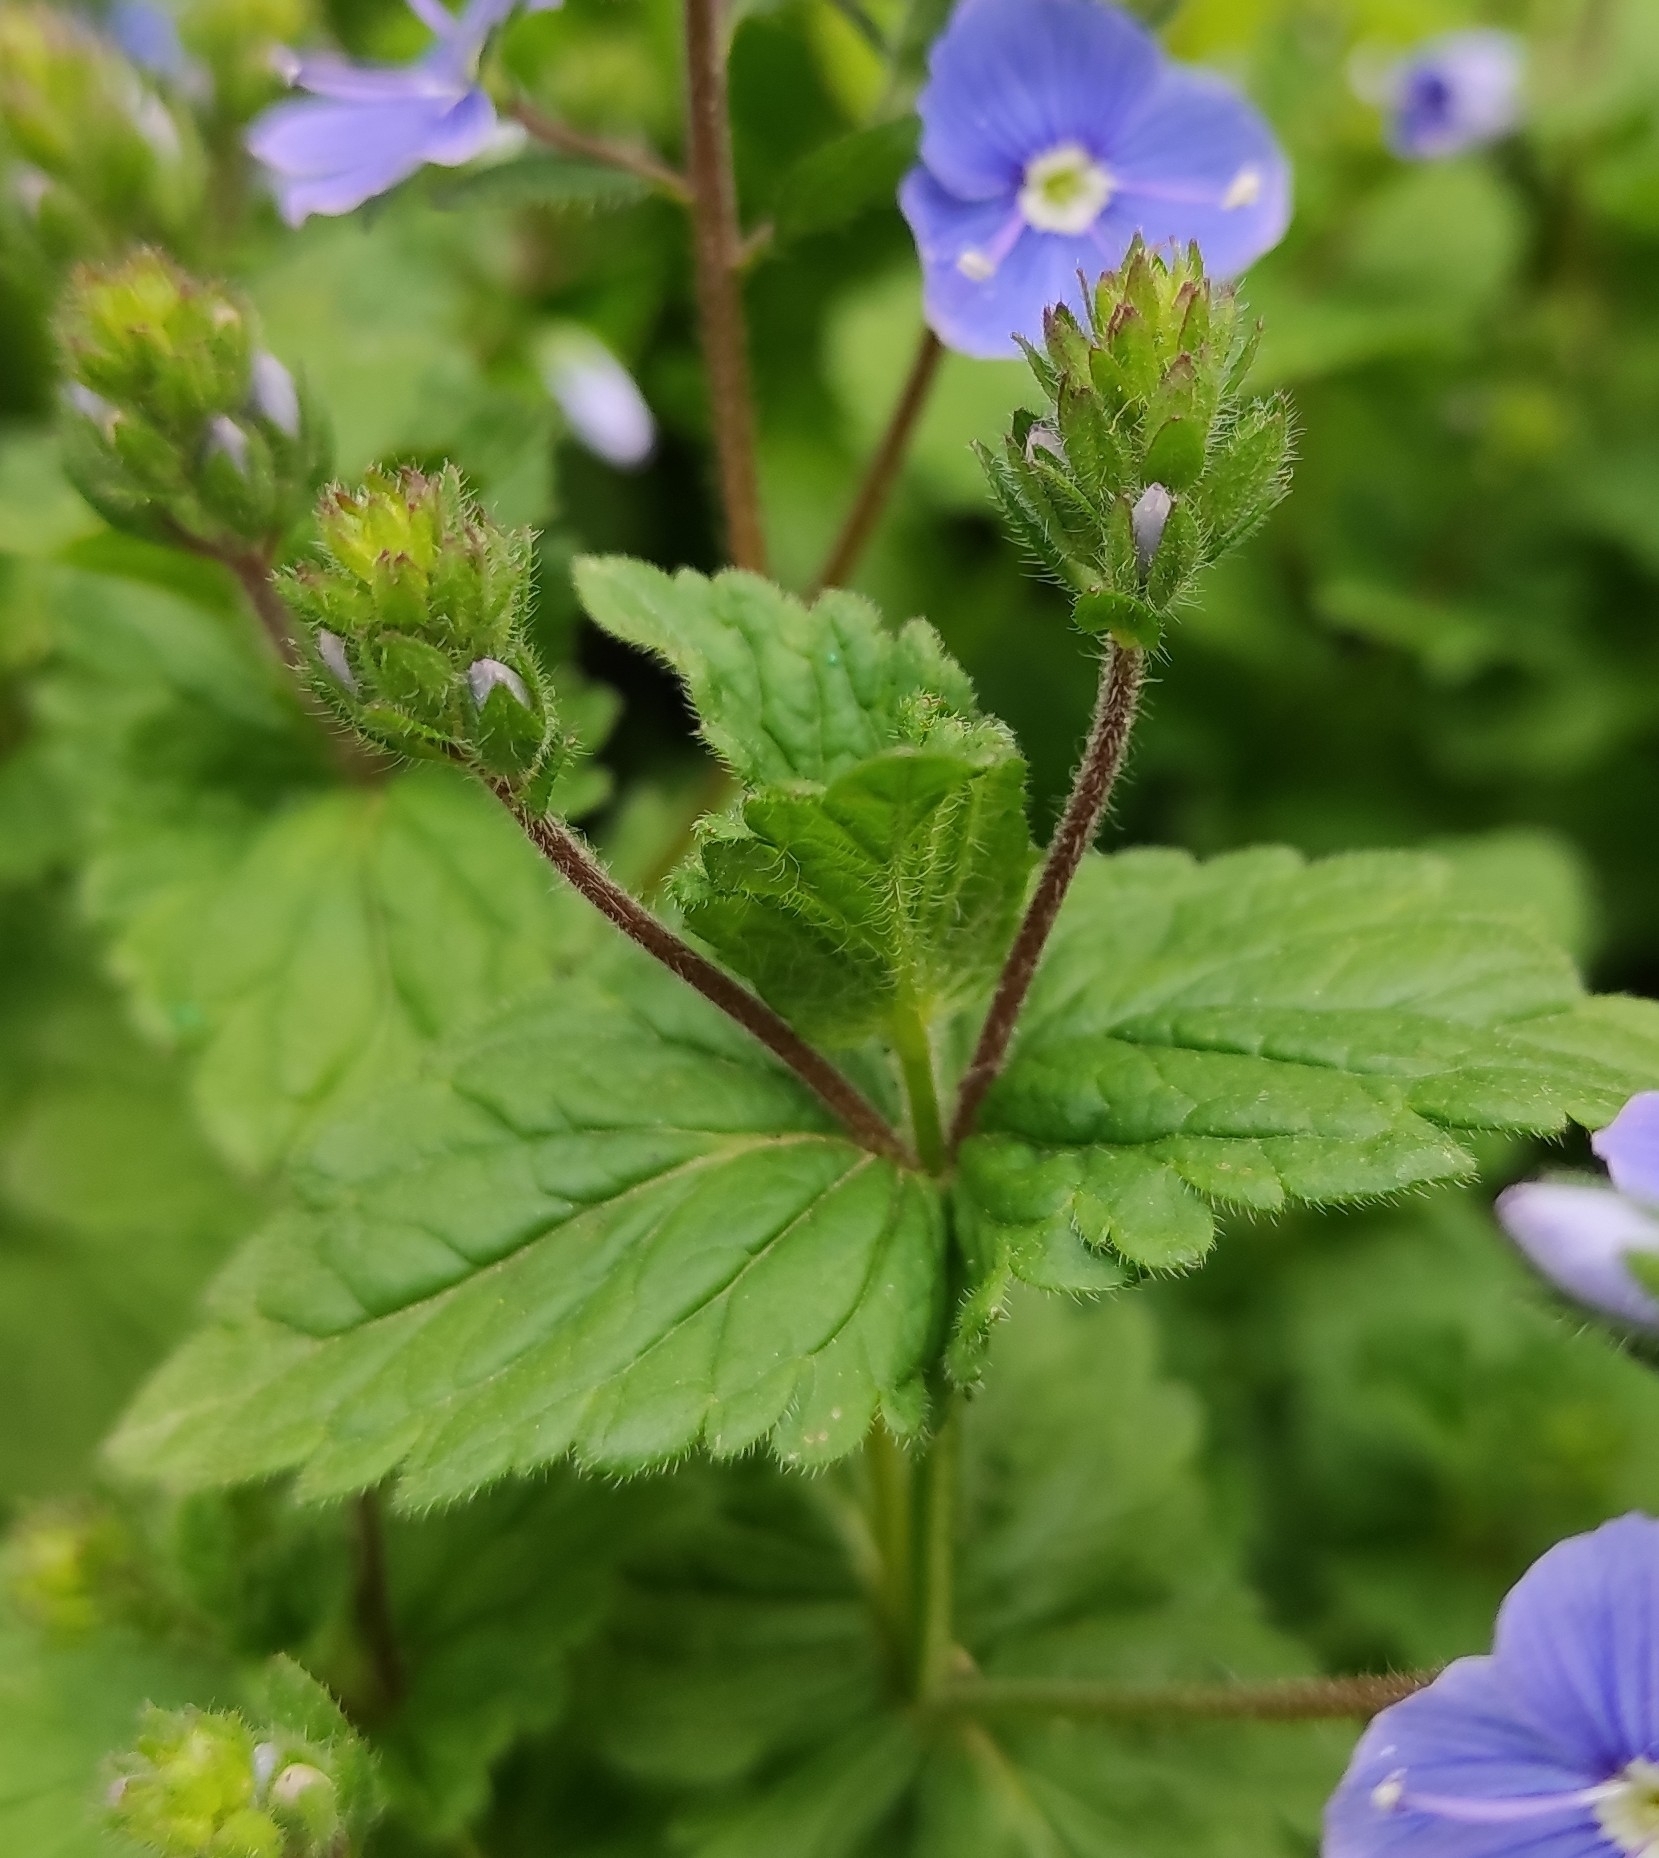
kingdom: Plantae
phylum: Tracheophyta
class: Magnoliopsida
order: Lamiales
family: Plantaginaceae
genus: Veronica
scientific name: Veronica chamaedrys
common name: Germander speedwell
